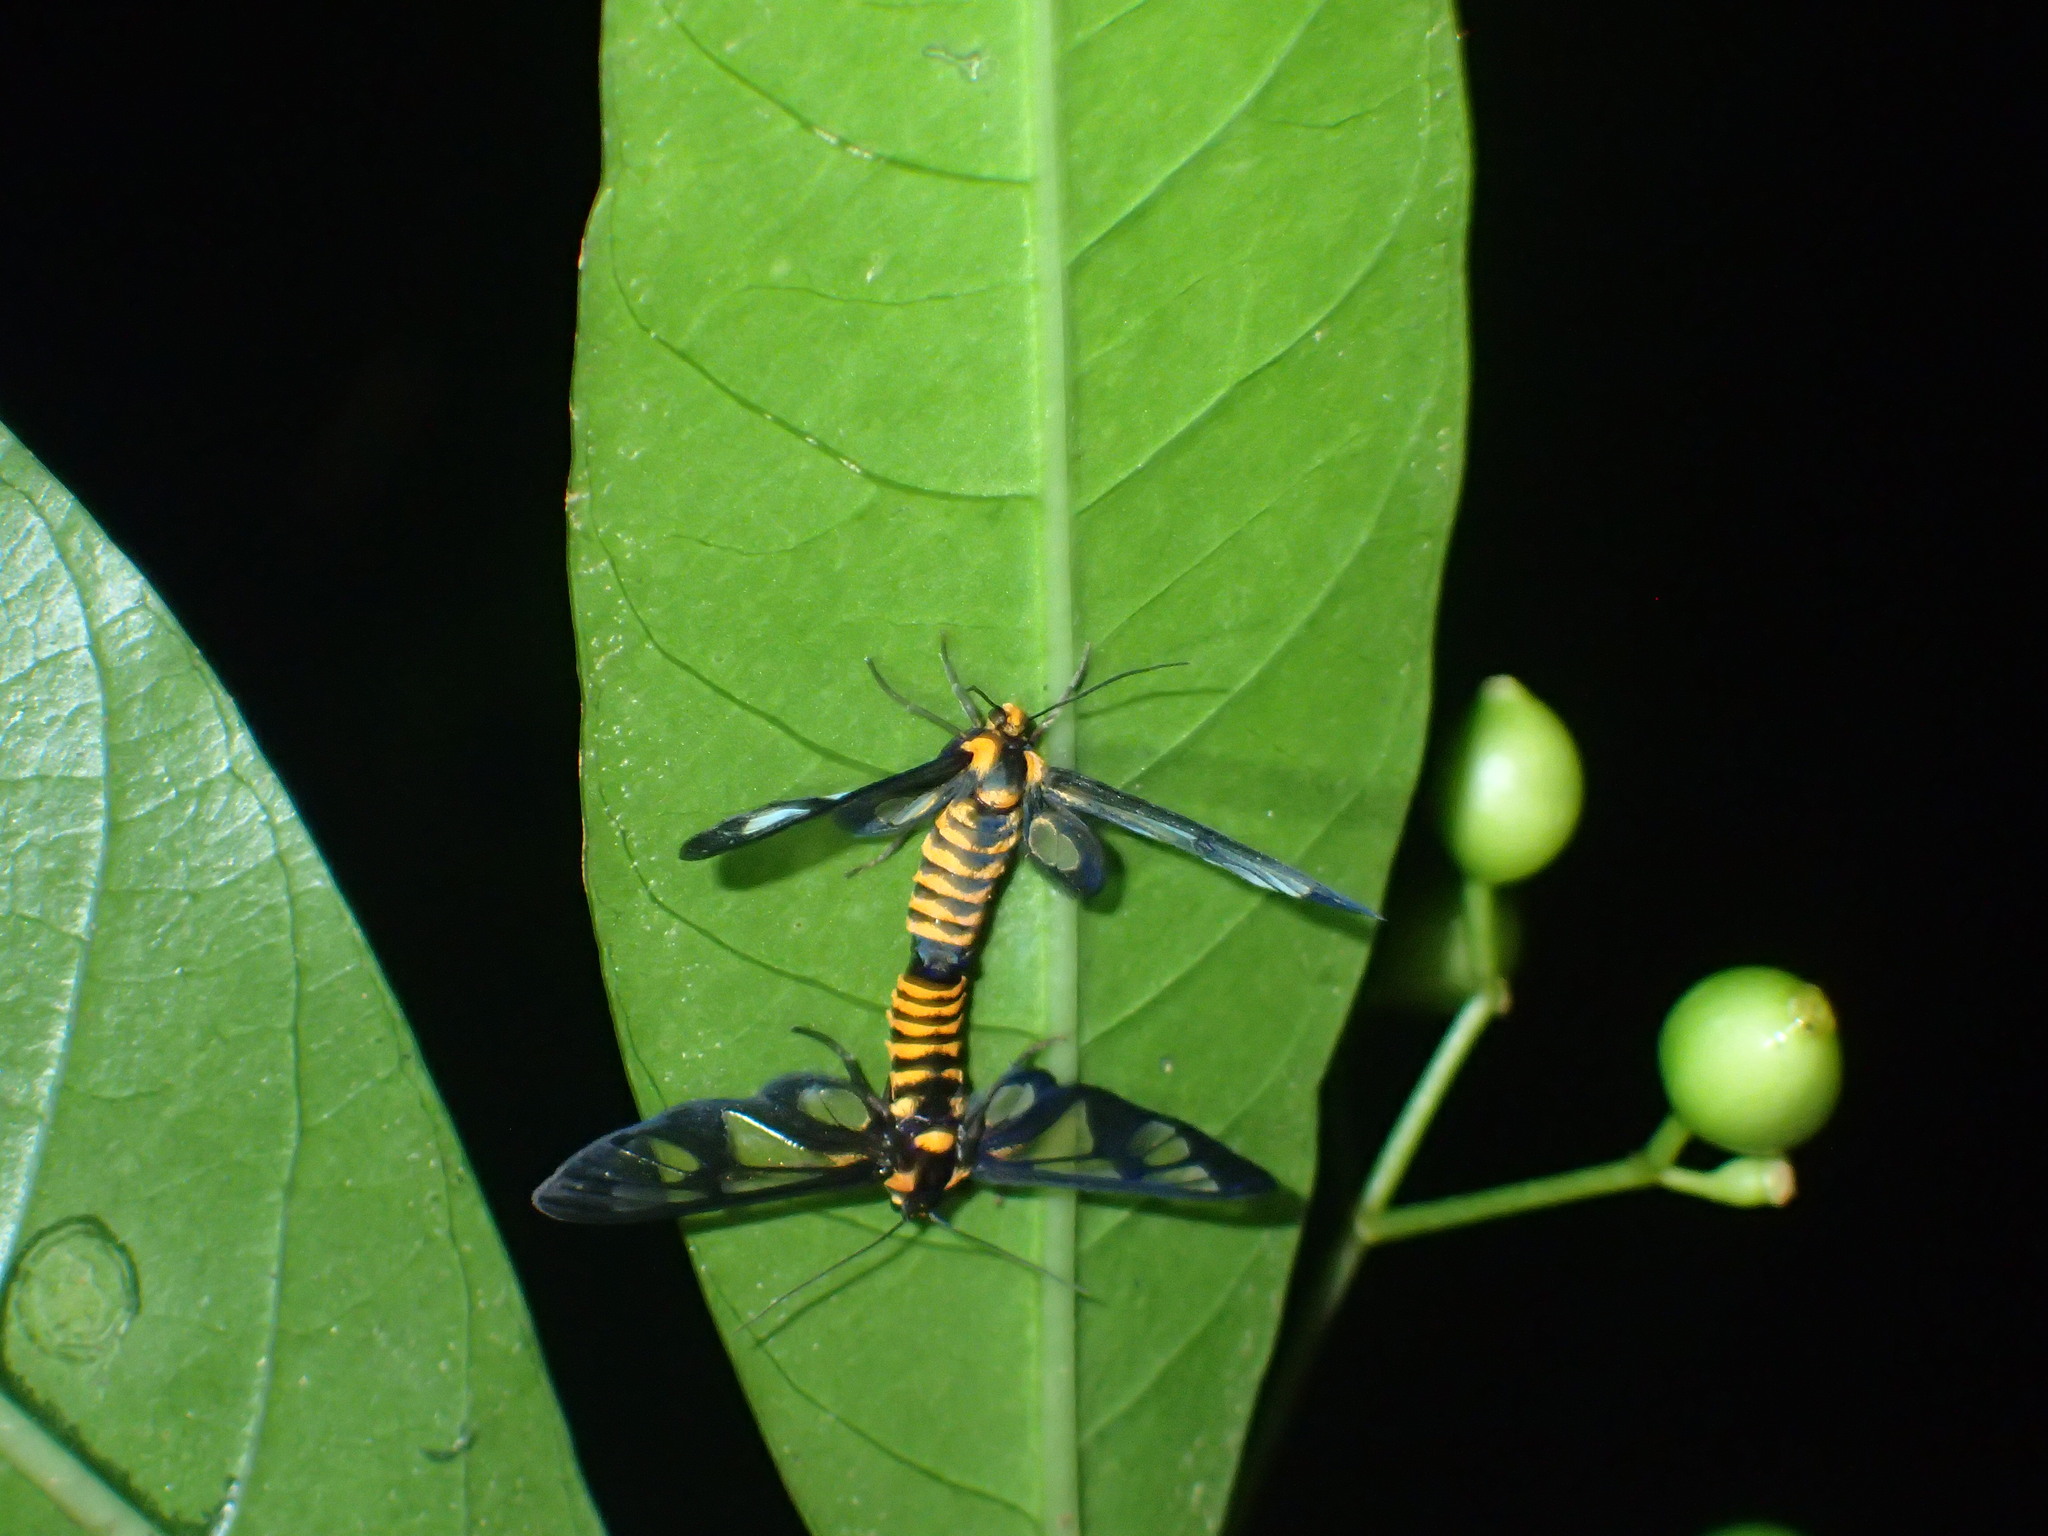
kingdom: Animalia
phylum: Arthropoda
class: Insecta
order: Lepidoptera
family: Erebidae
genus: Ceryx
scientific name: Ceryx sphenodes
